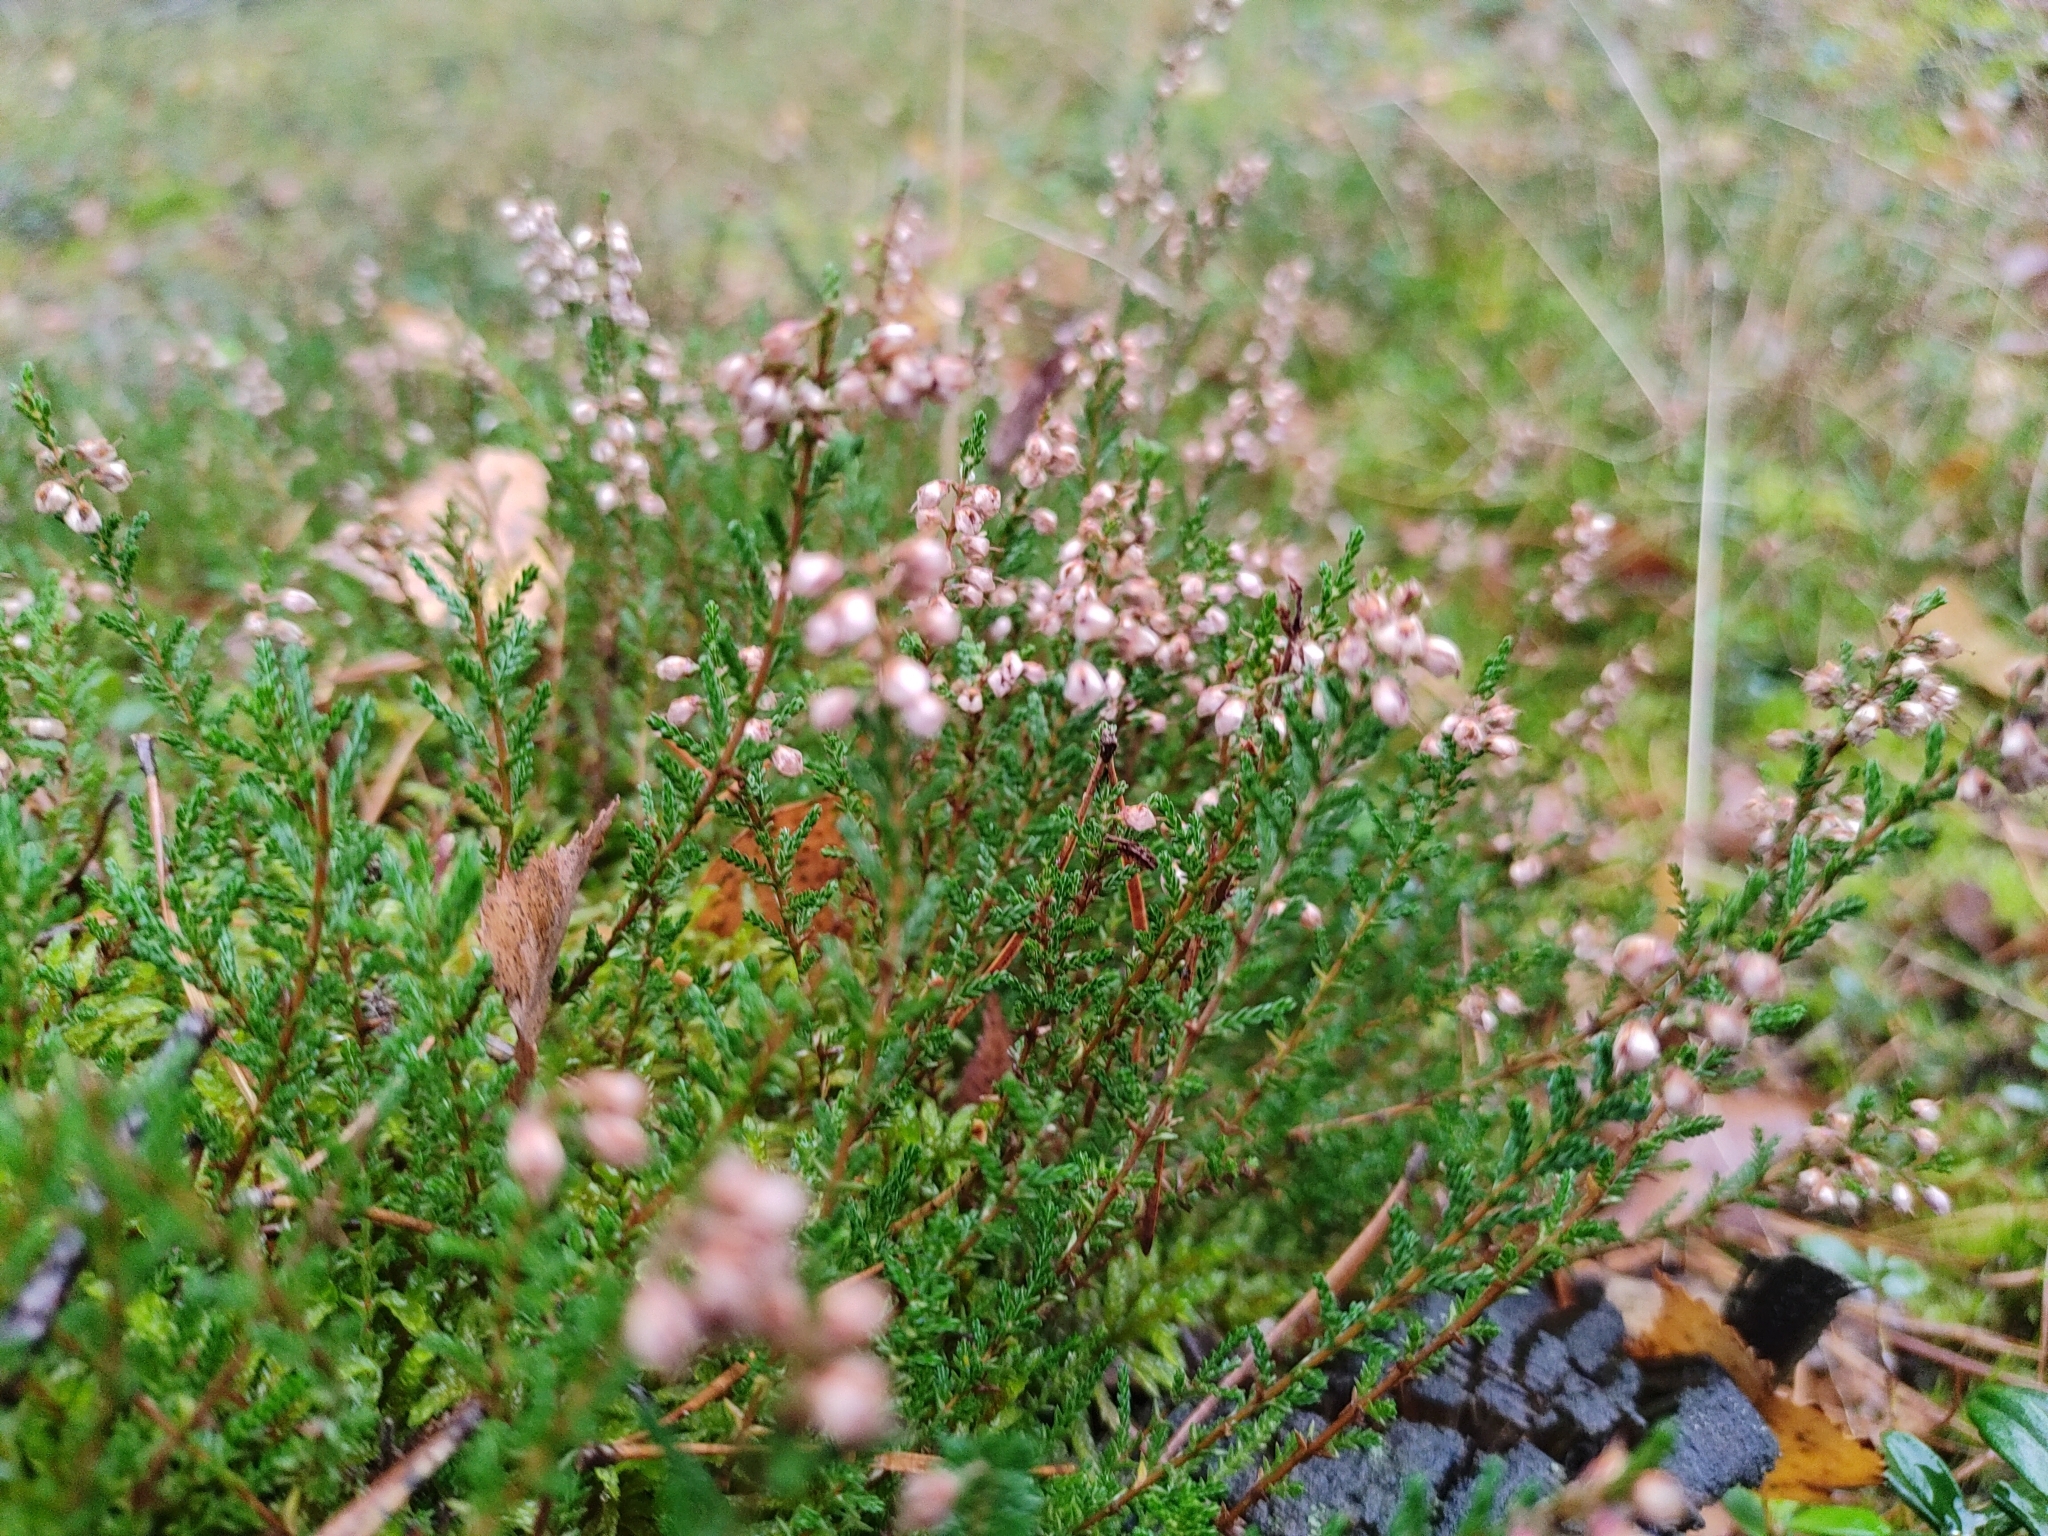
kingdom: Plantae
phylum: Tracheophyta
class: Magnoliopsida
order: Ericales
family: Ericaceae
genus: Calluna
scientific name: Calluna vulgaris
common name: Heather
